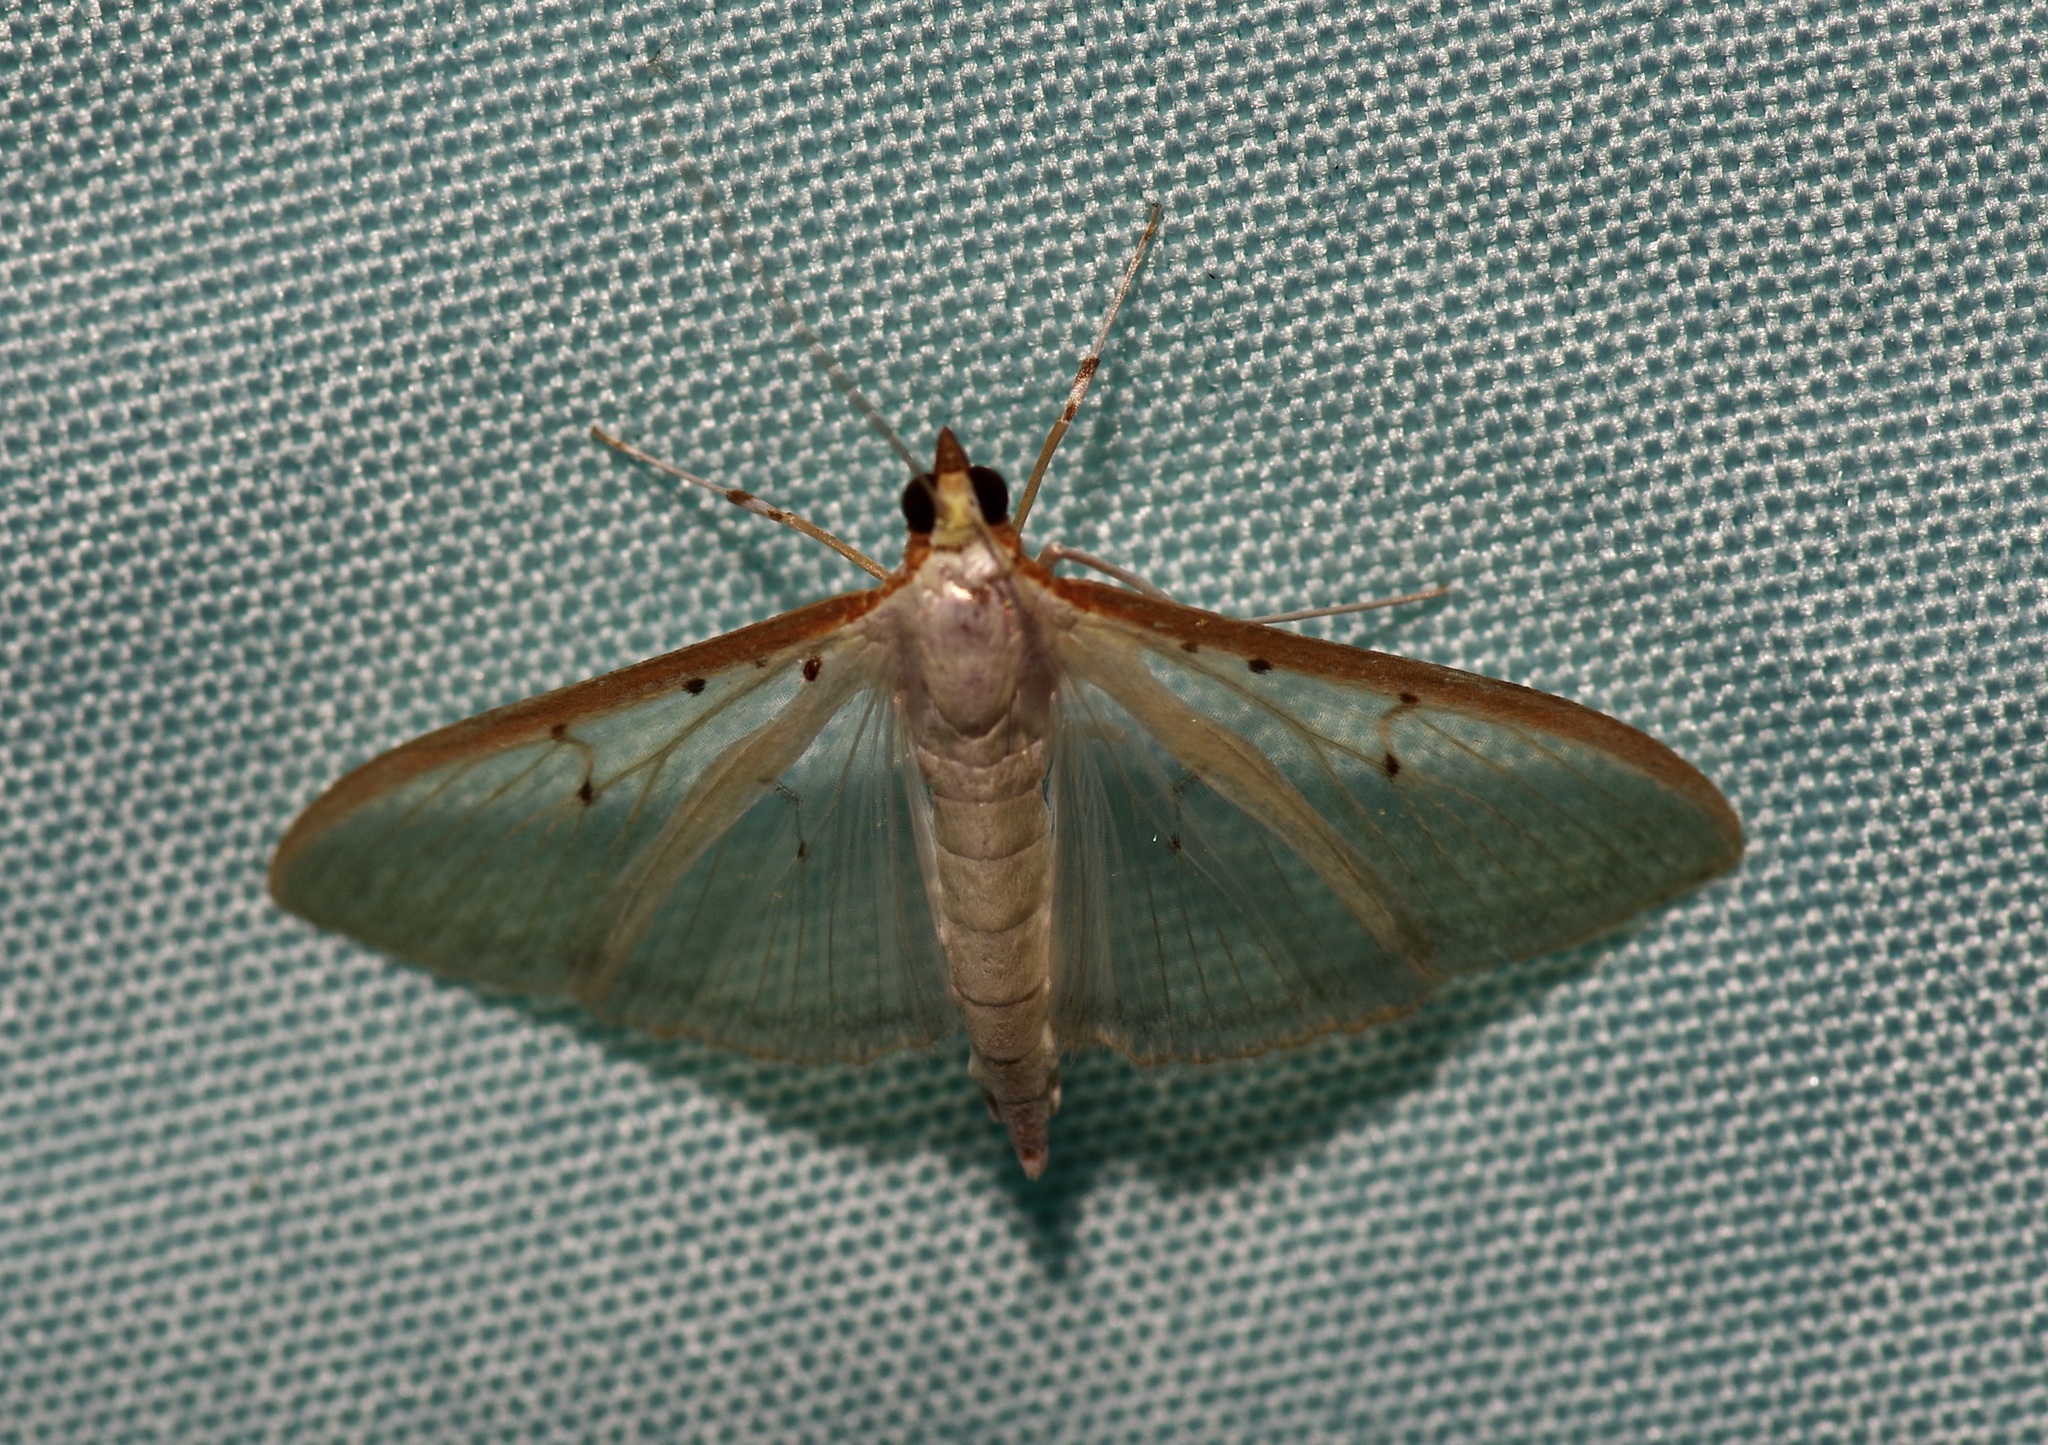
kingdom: Animalia
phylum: Arthropoda
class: Insecta
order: Lepidoptera
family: Crambidae
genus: Palpita
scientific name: Palpita quadristigmalis
